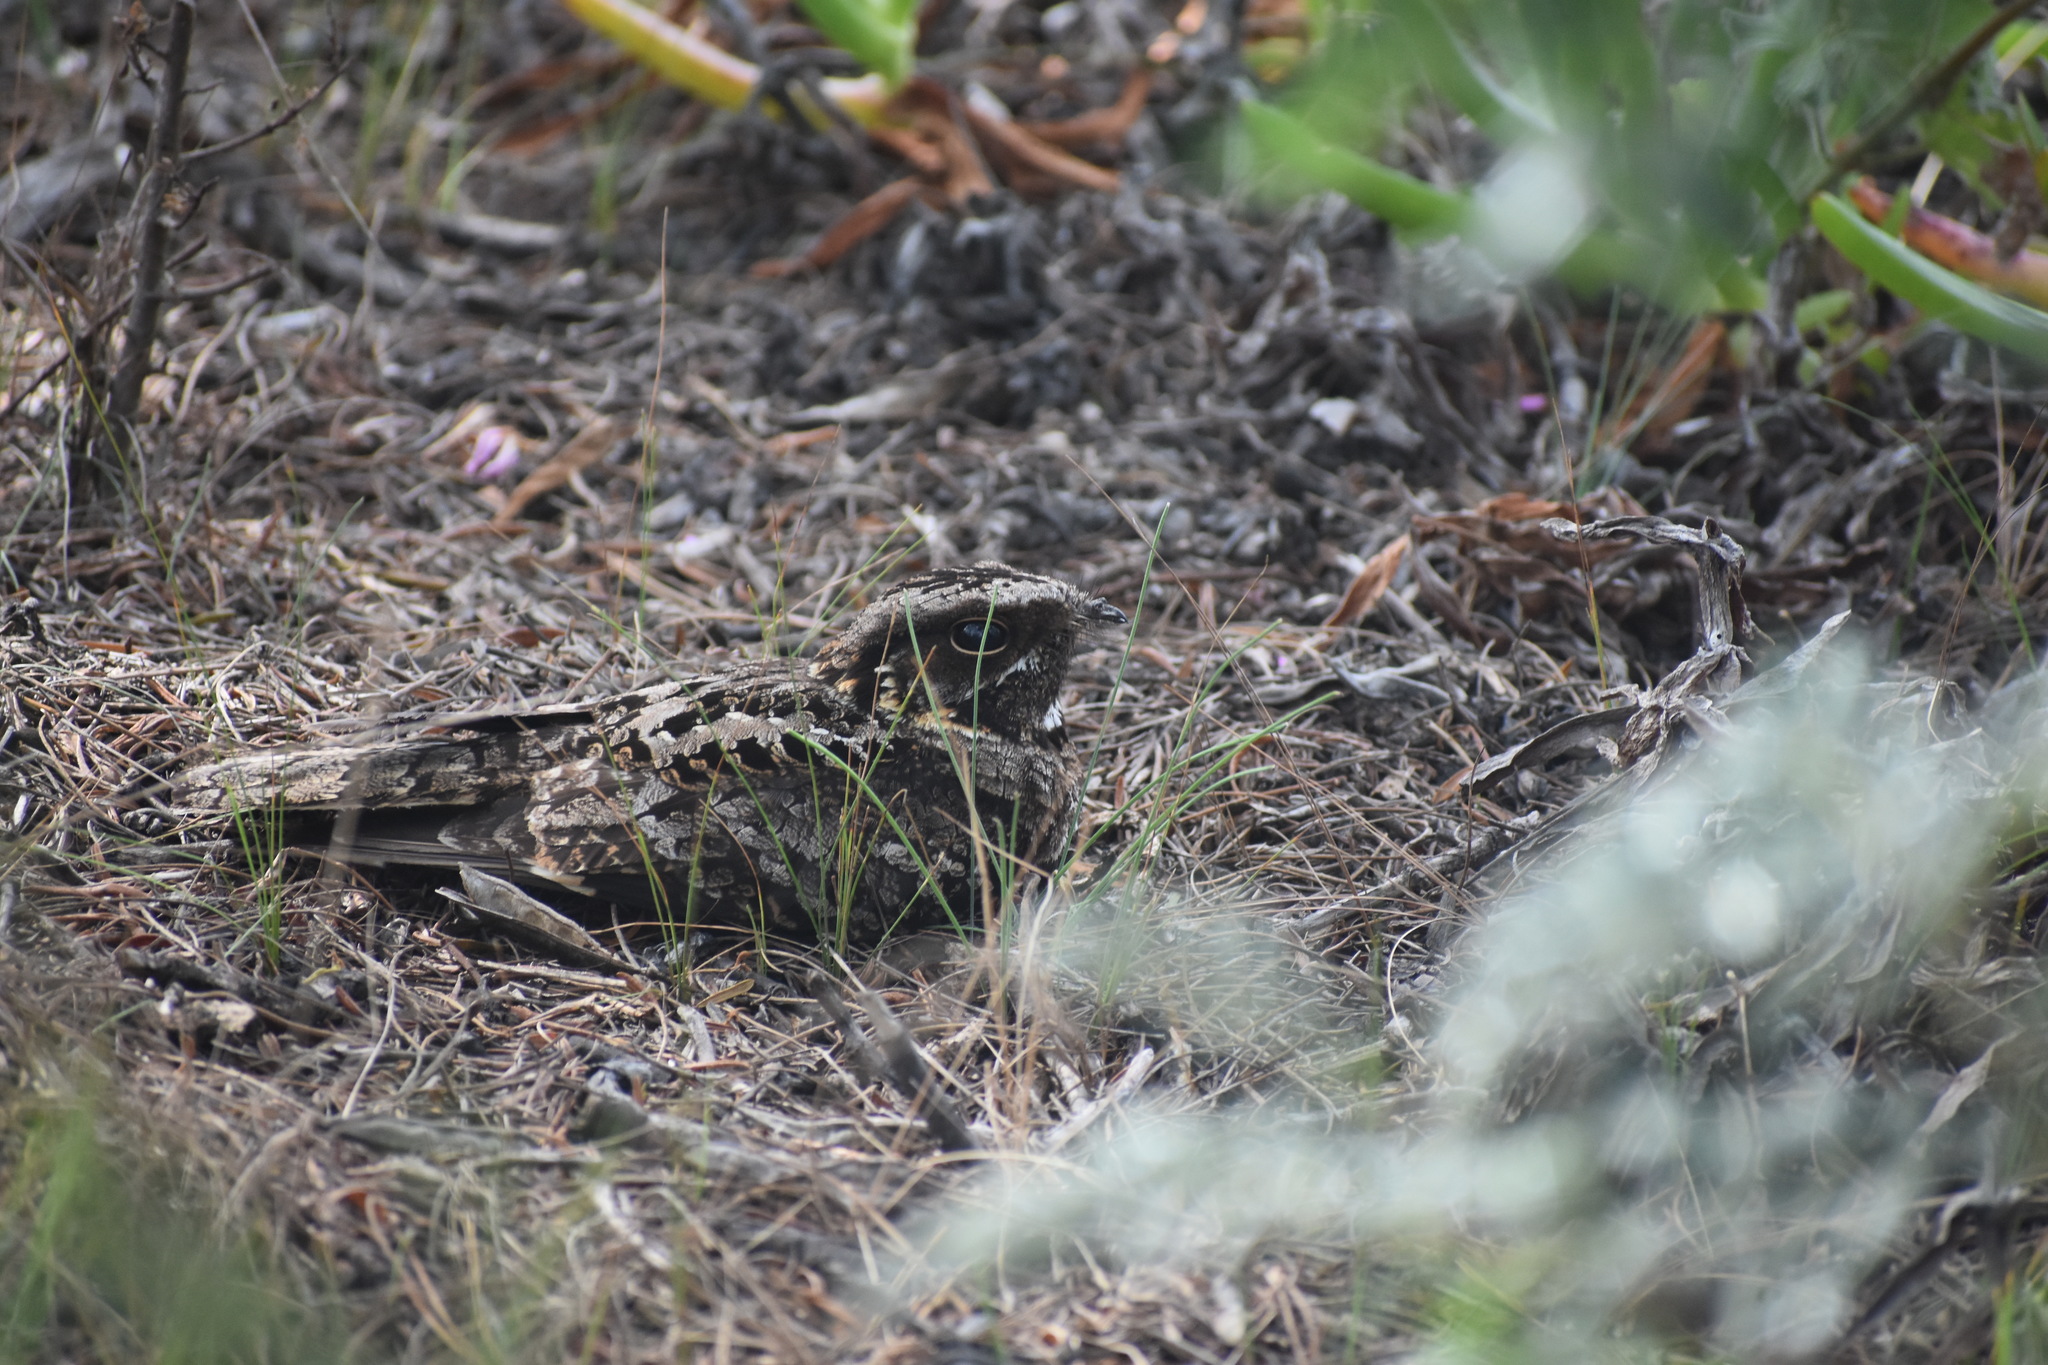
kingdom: Animalia
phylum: Chordata
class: Aves
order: Caprimulgiformes
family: Caprimulgidae
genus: Caprimulgus
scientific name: Caprimulgus pectoralis
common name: Fiery-necked nightjar
